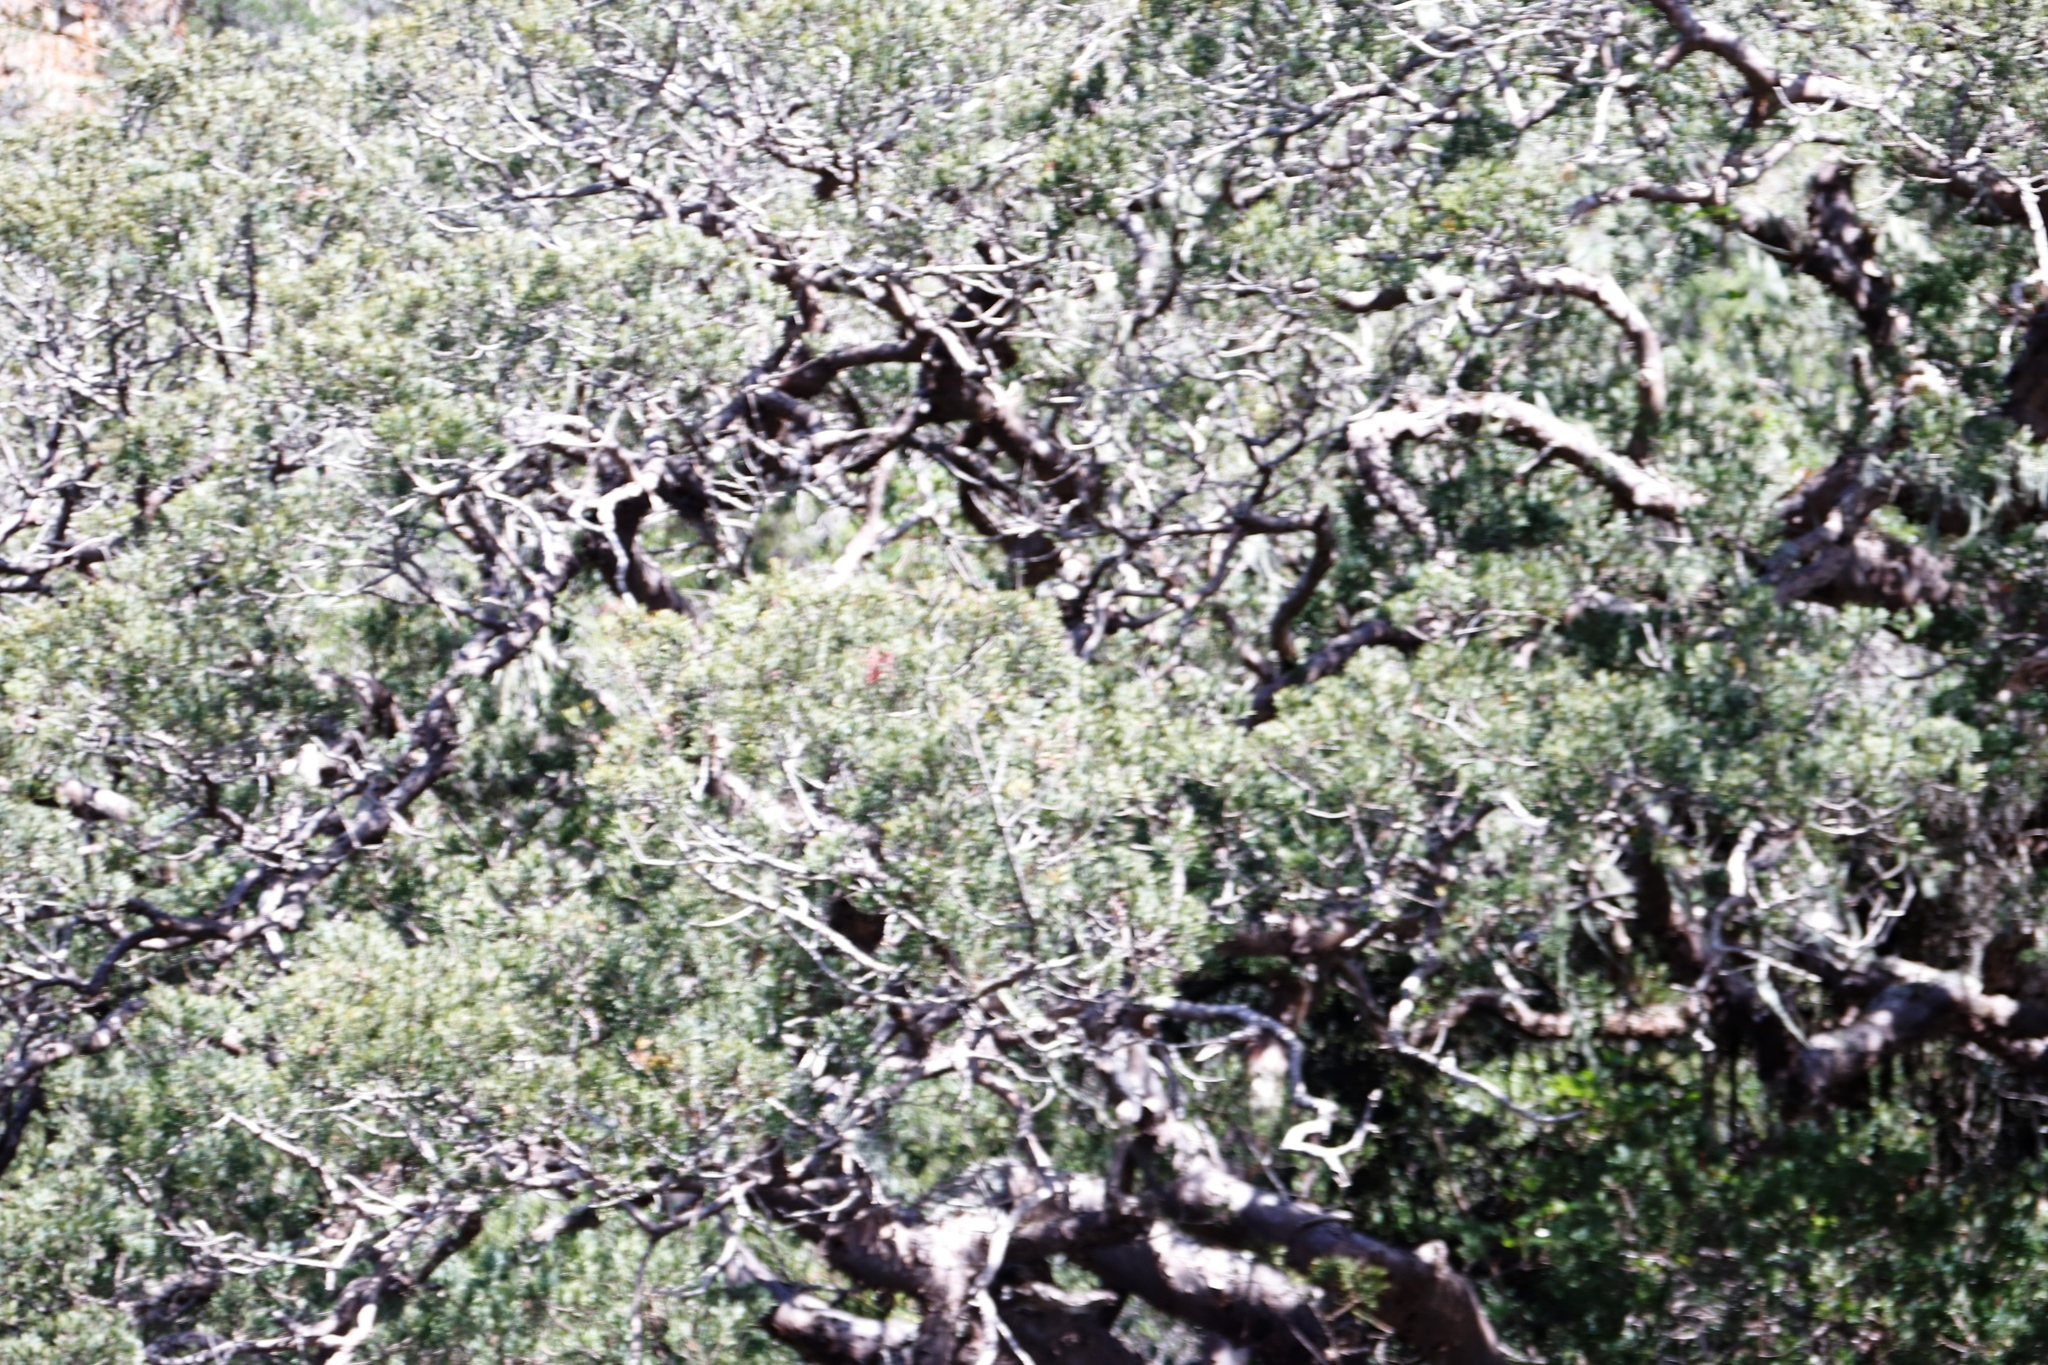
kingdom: Plantae
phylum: Tracheophyta
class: Pinopsida
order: Pinales
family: Podocarpaceae
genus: Afrocarpus
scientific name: Afrocarpus falcatus
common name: Bastard yellowwood
